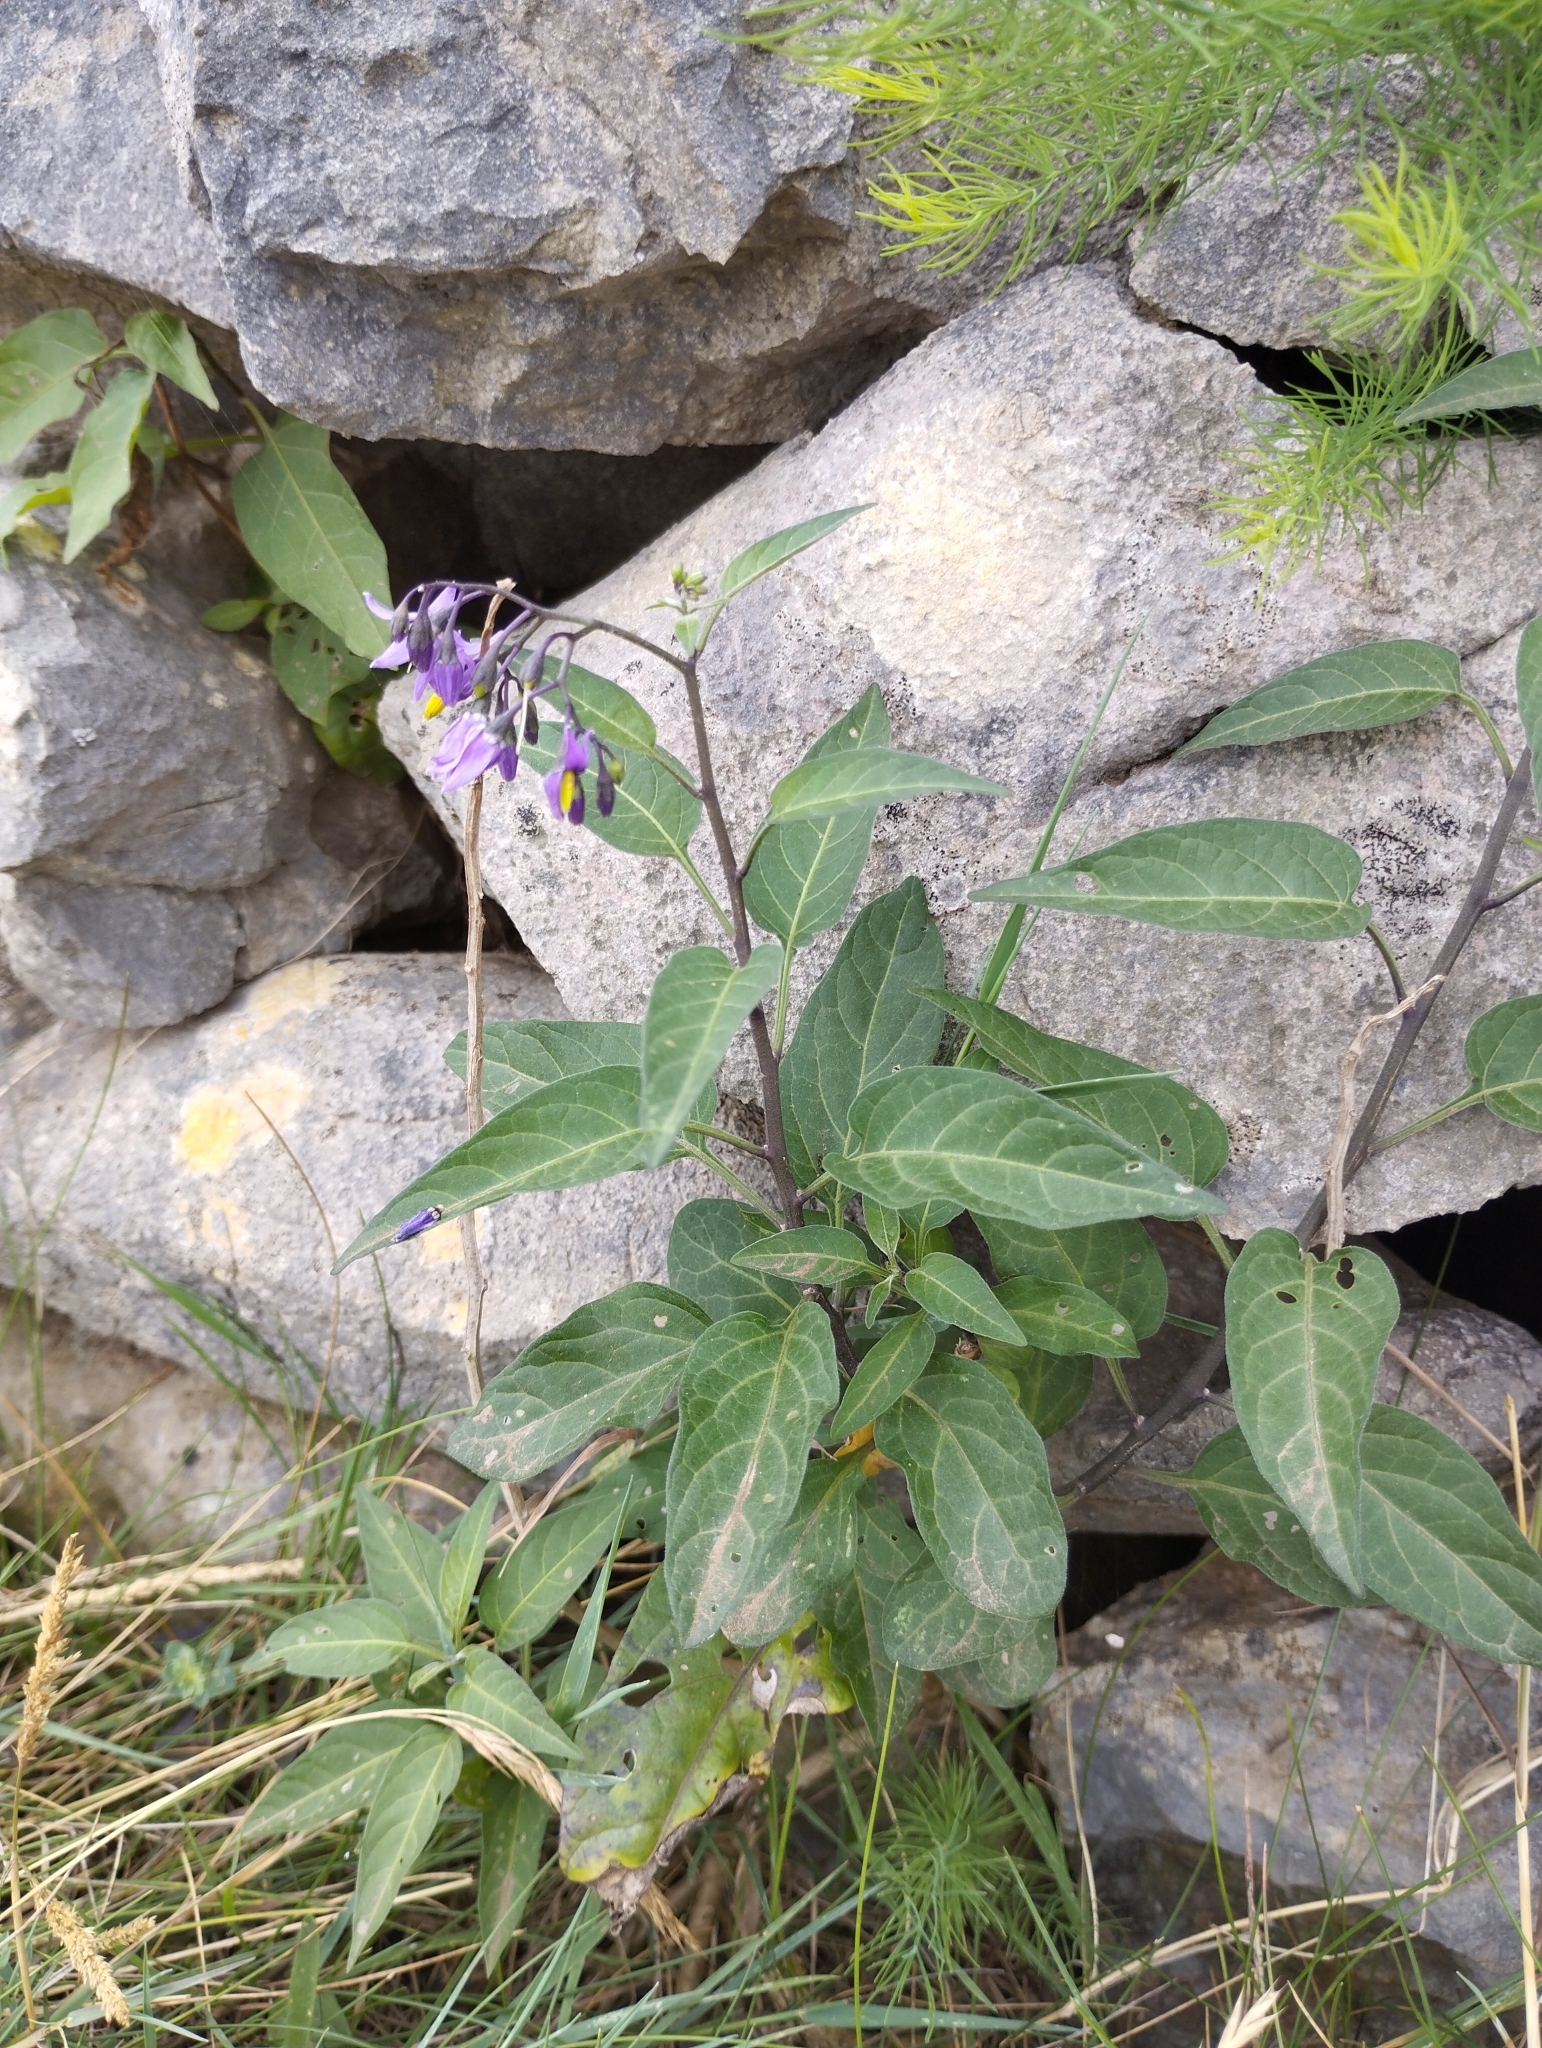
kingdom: Plantae
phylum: Tracheophyta
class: Magnoliopsida
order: Solanales
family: Solanaceae
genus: Solanum
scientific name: Solanum dulcamara
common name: Climbing nightshade
